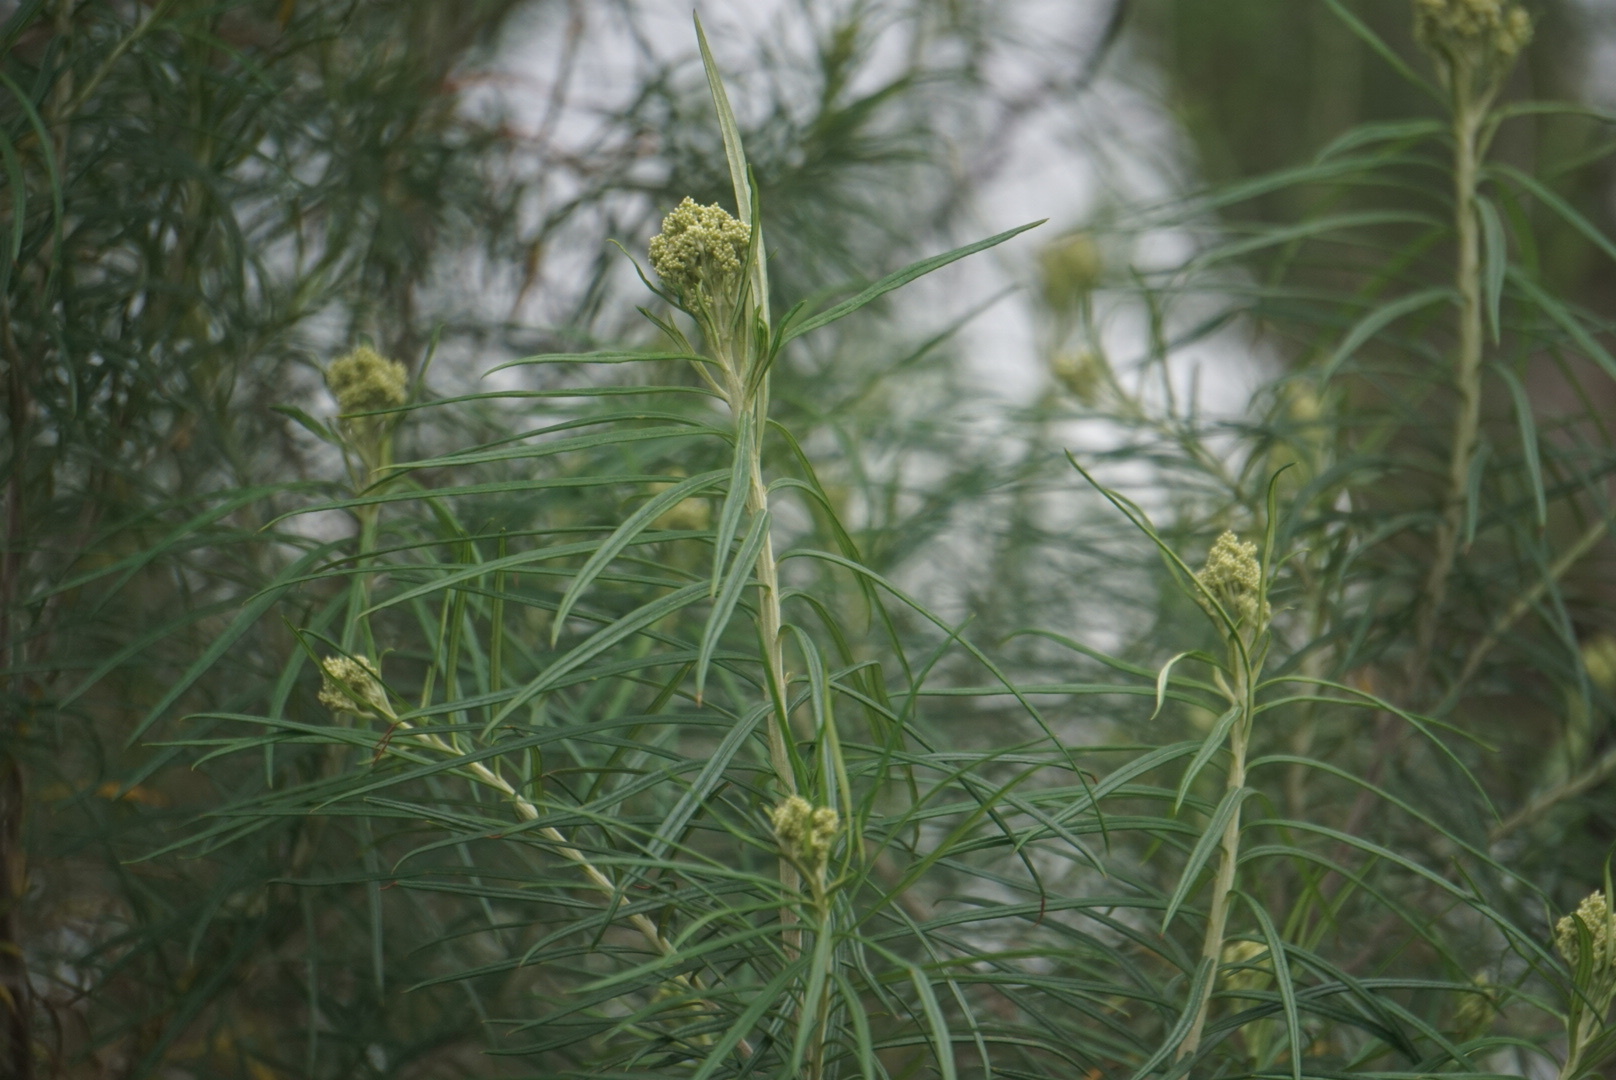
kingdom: Plantae
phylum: Tracheophyta
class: Magnoliopsida
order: Asterales
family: Asteraceae
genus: Cassinia
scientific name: Cassinia longifolia
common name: Longleaf-dogwood
